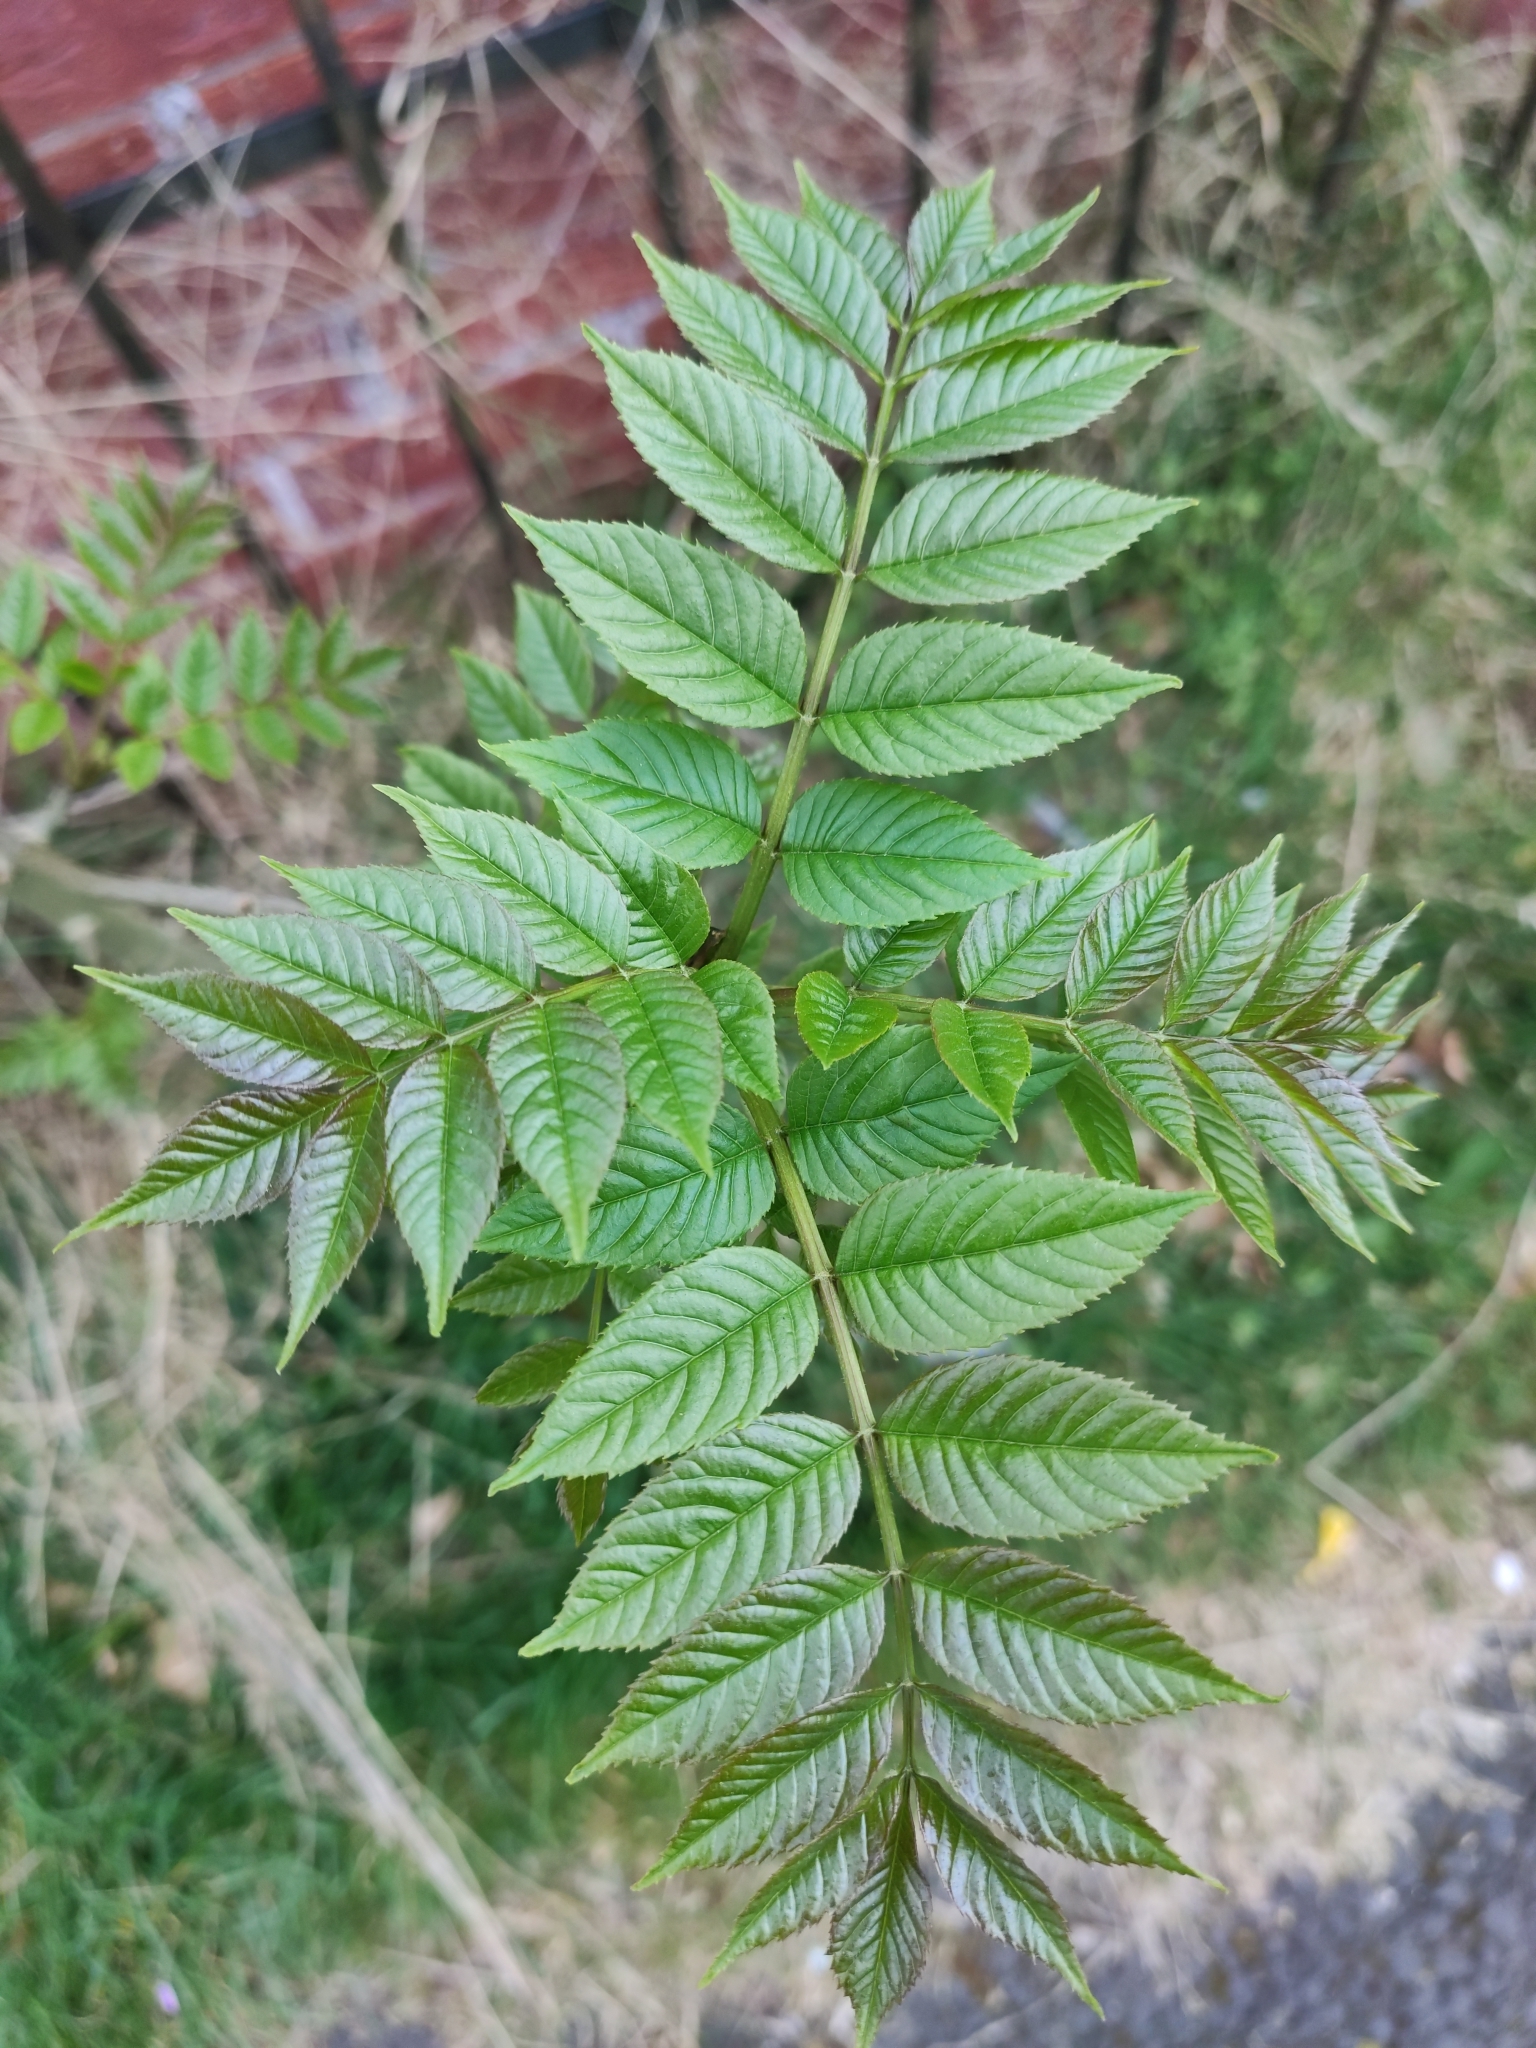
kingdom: Plantae
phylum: Tracheophyta
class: Magnoliopsida
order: Lamiales
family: Oleaceae
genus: Fraxinus
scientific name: Fraxinus excelsior
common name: European ash
